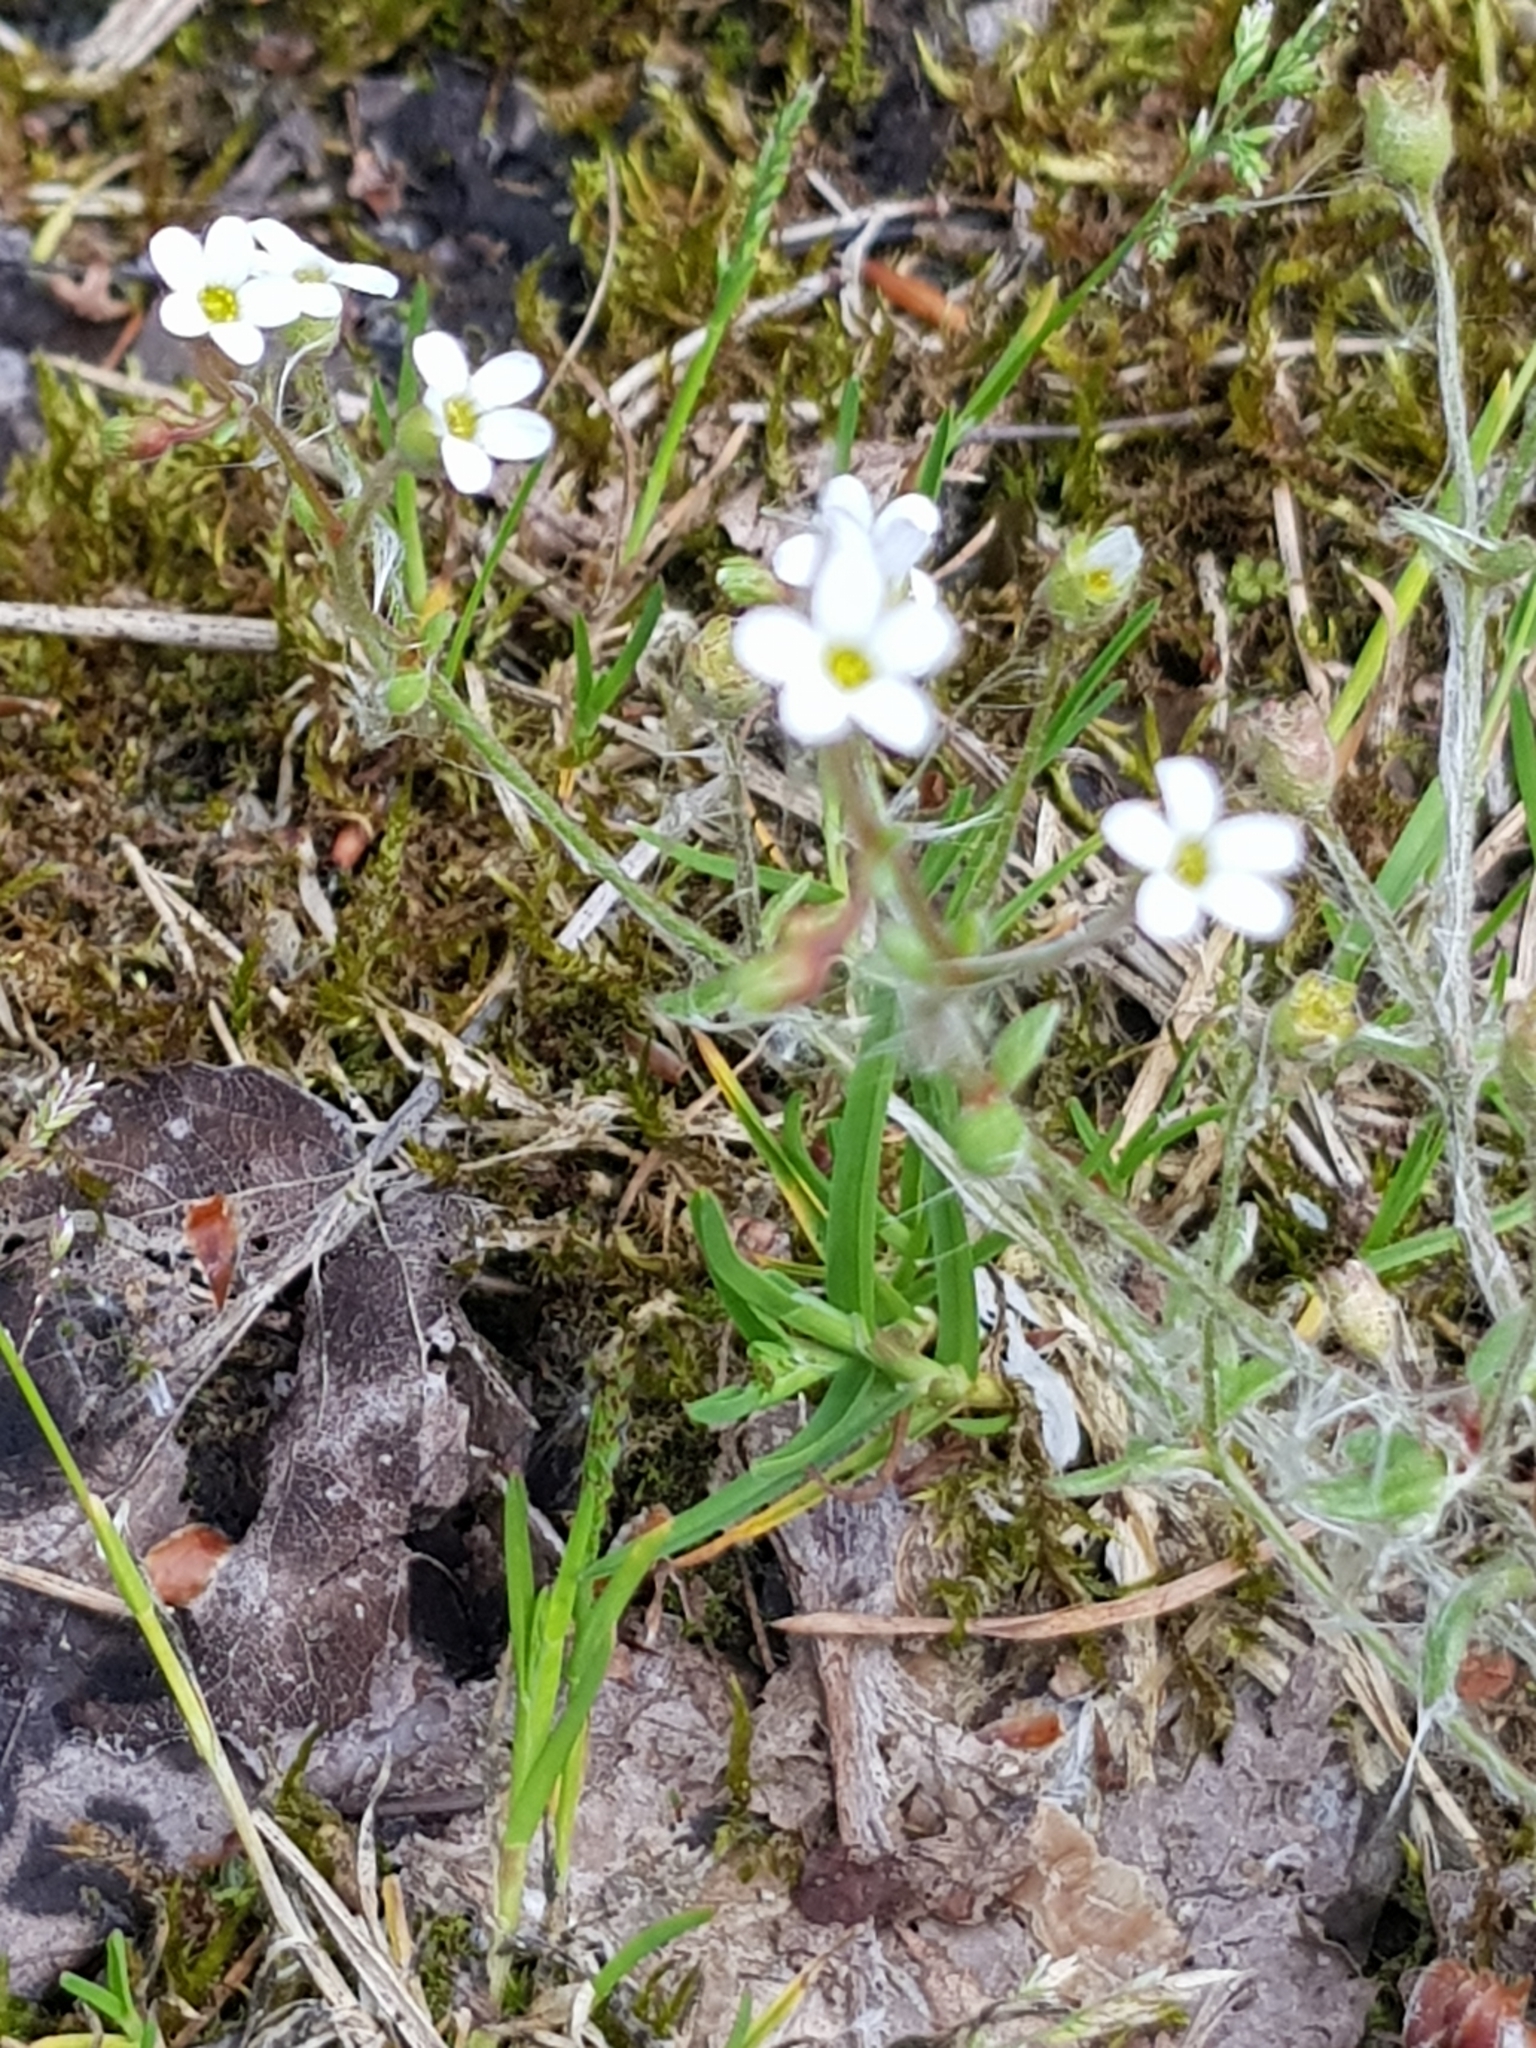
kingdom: Plantae
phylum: Tracheophyta
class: Magnoliopsida
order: Saxifragales
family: Saxifragaceae
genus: Saxifraga
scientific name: Saxifraga tridactylites
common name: Rue-leaved saxifrage
